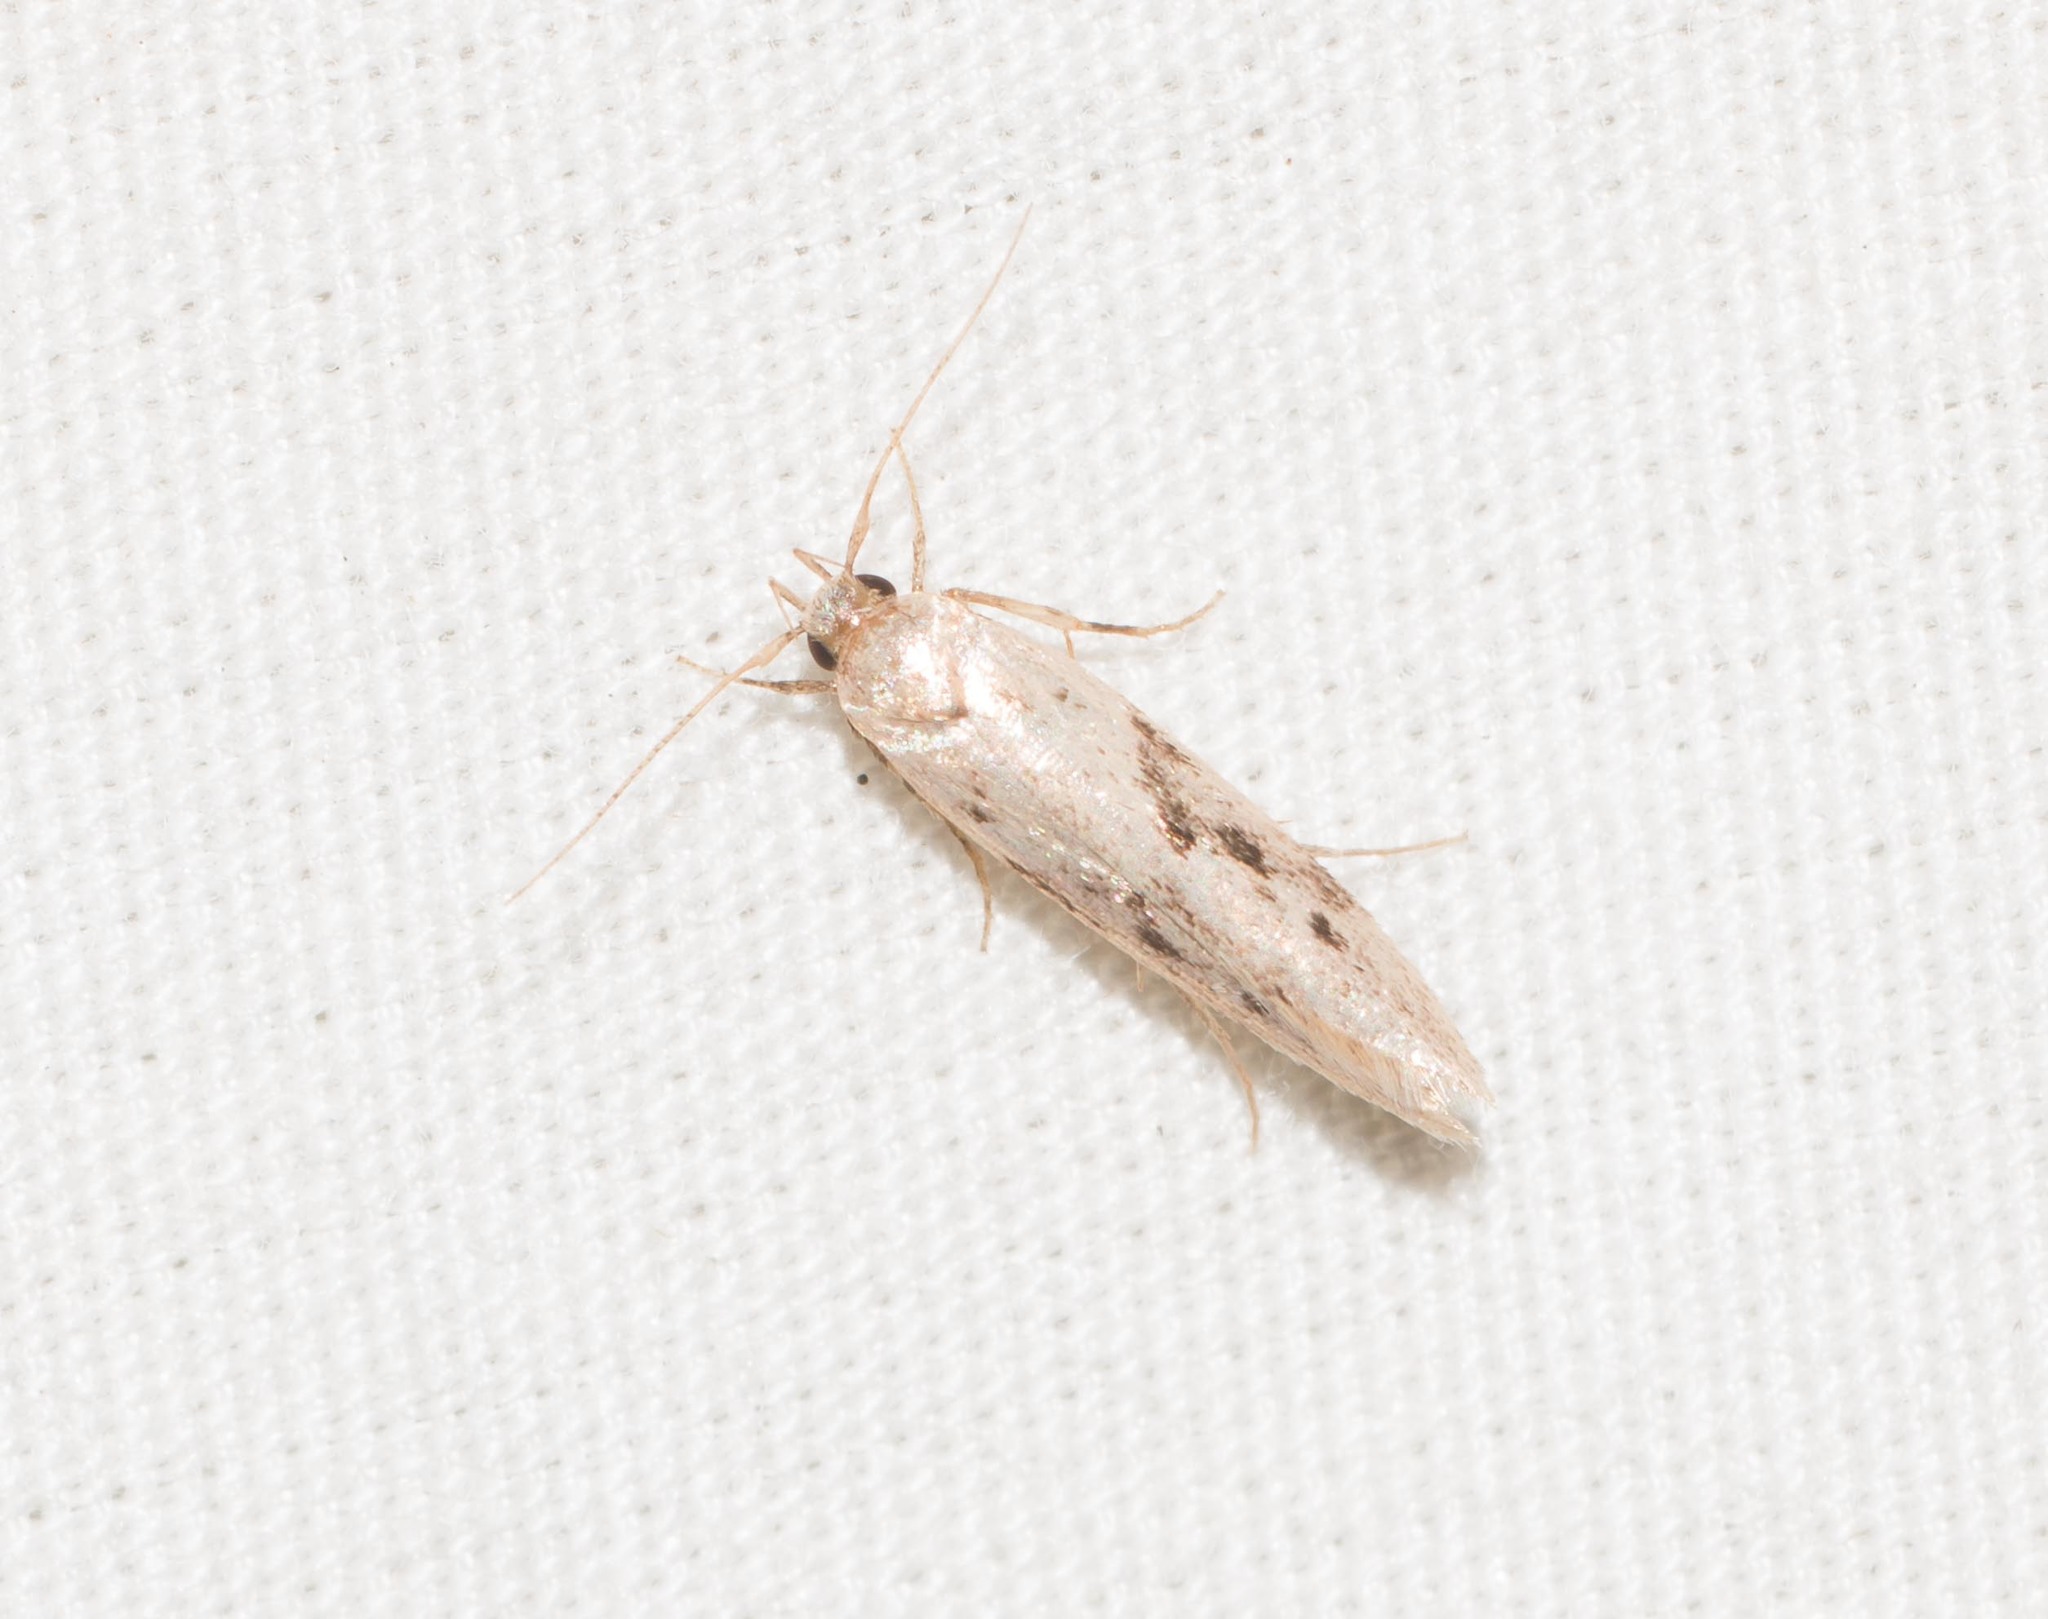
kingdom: Animalia
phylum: Arthropoda
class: Insecta
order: Lepidoptera
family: Cosmopterigidae
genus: Hyposmochoma
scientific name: Hyposmochoma nephelodes
